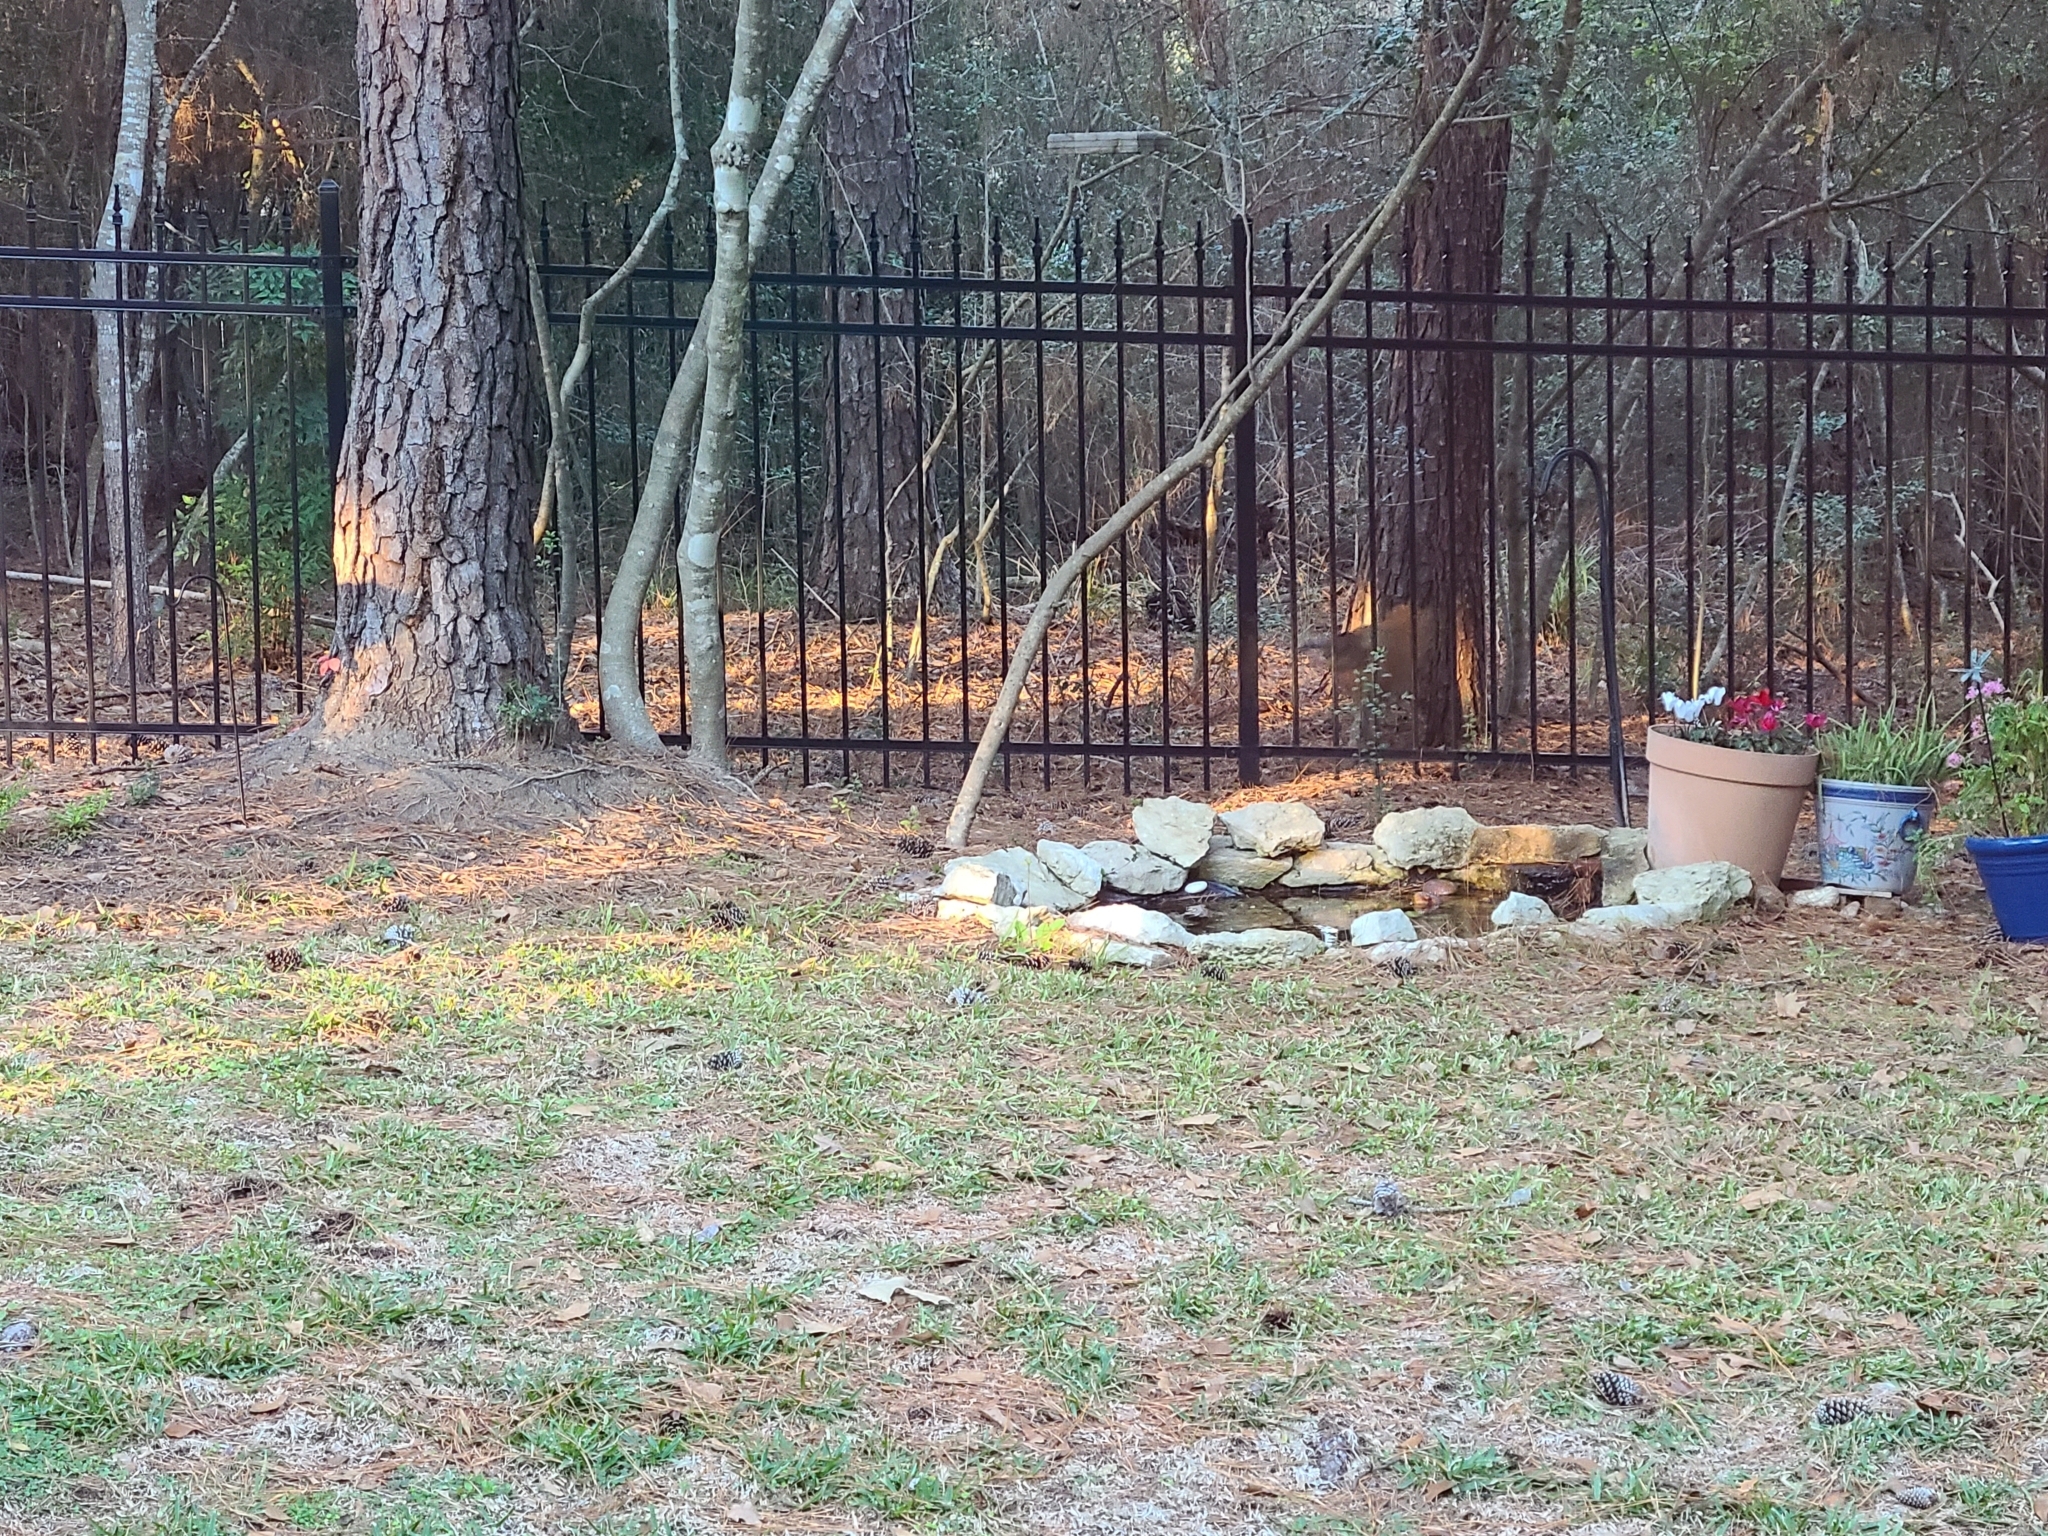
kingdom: Animalia
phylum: Chordata
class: Mammalia
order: Carnivora
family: Canidae
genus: Vulpes
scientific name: Vulpes vulpes
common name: Red fox
